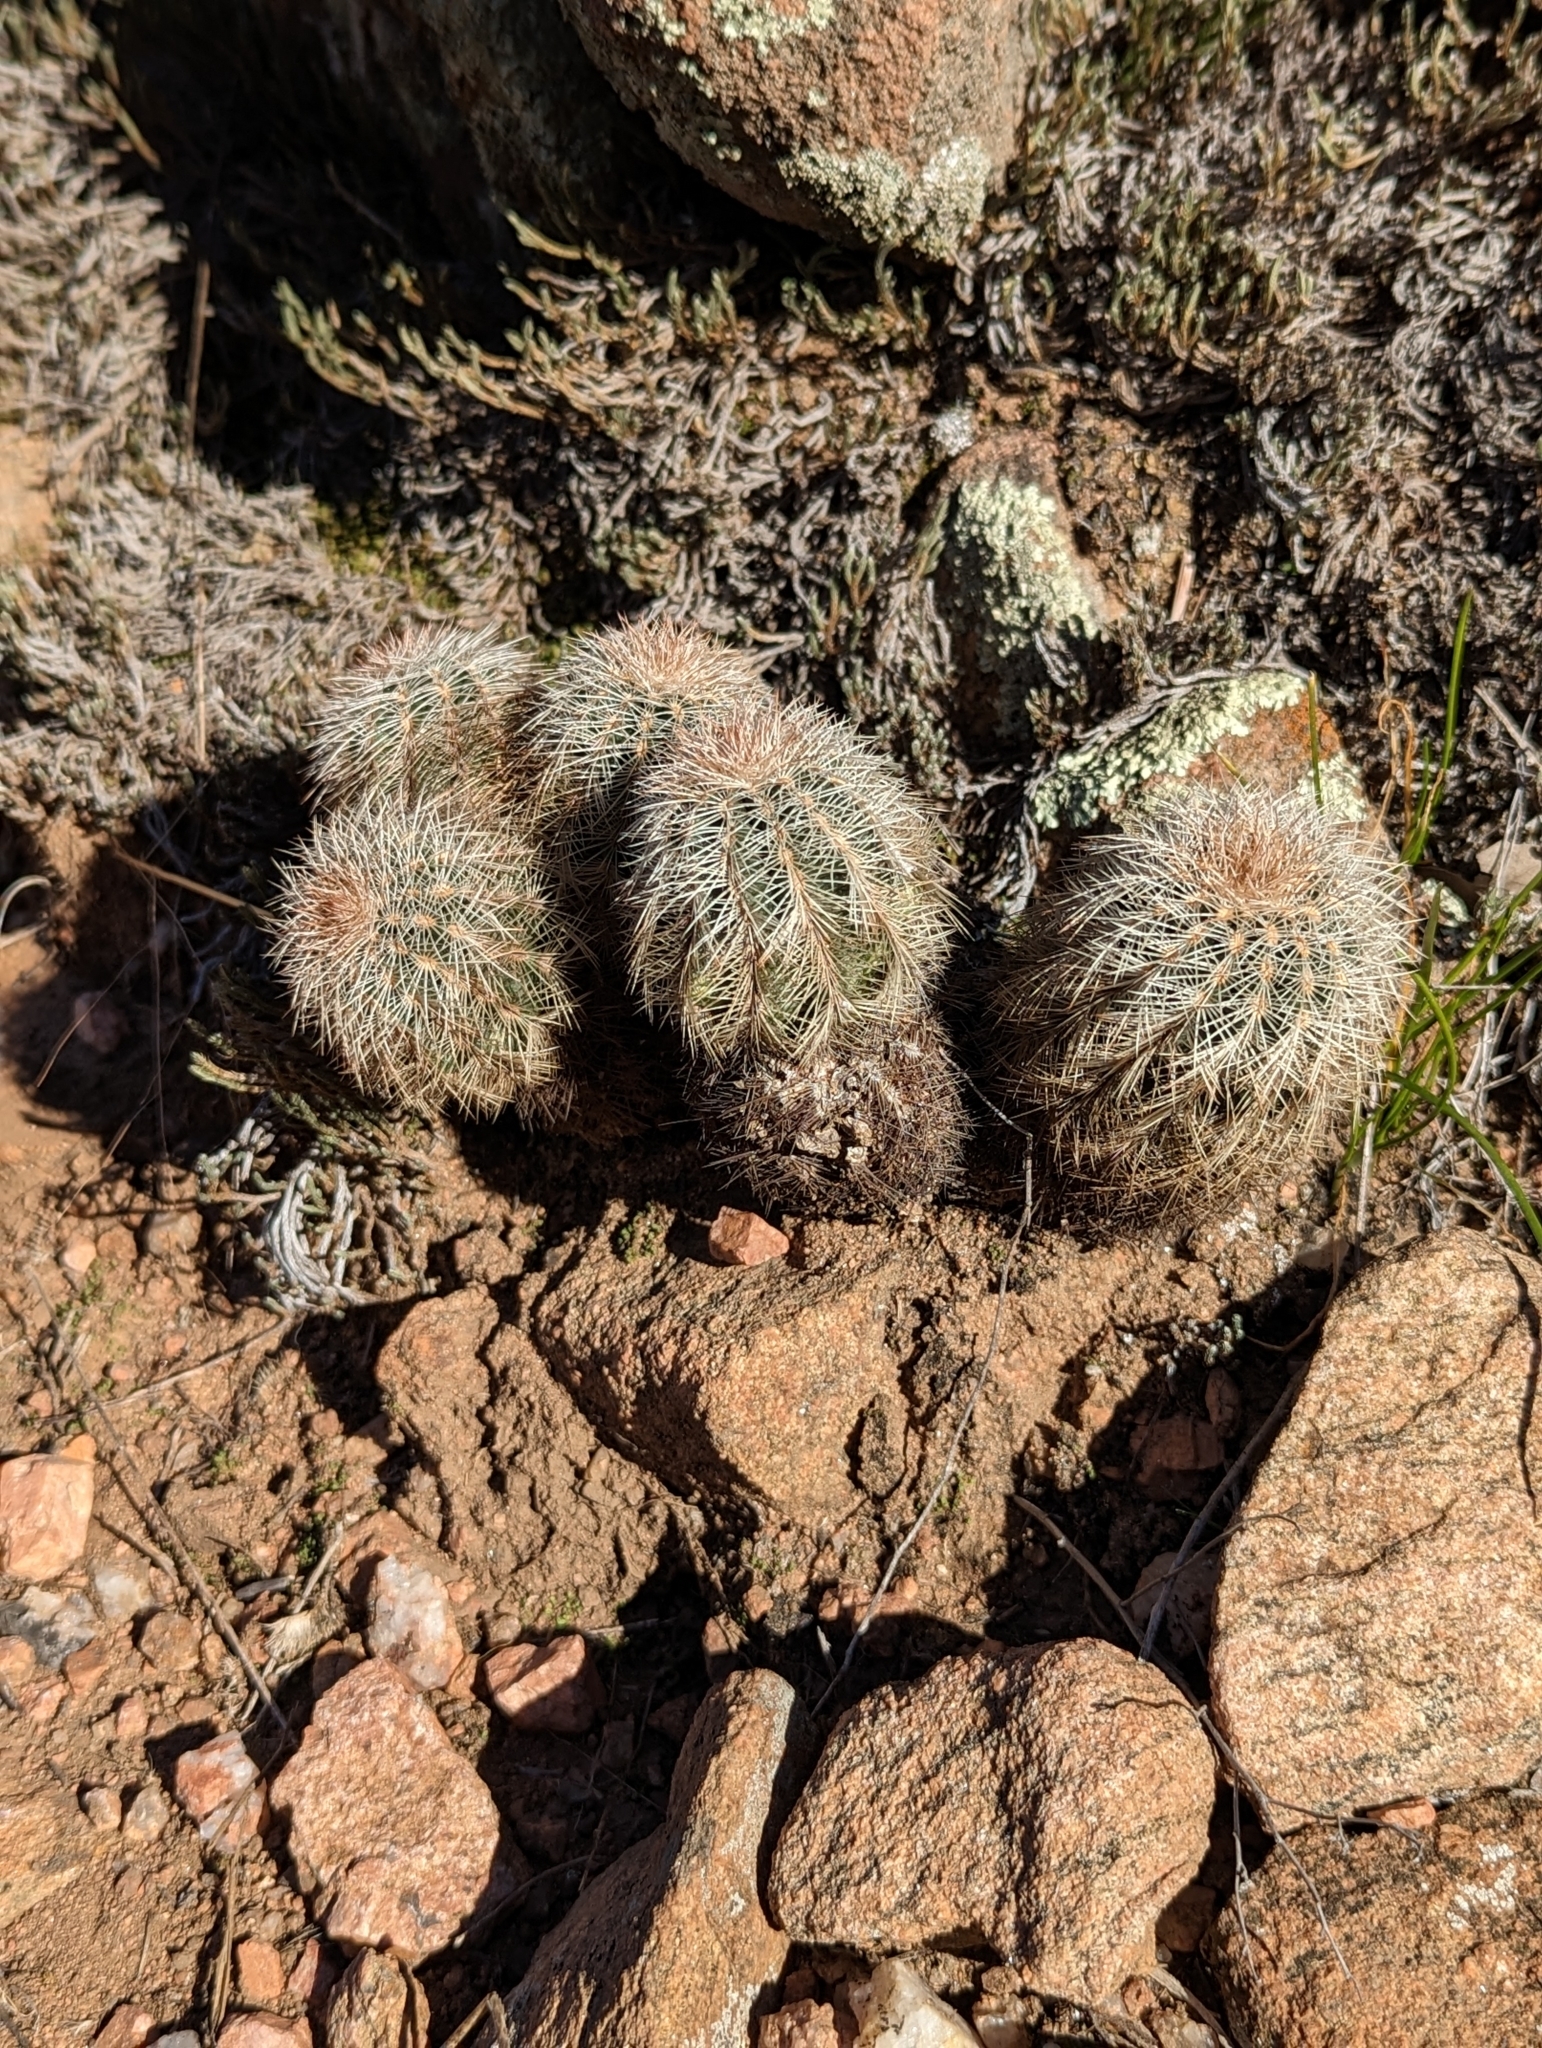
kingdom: Plantae
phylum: Tracheophyta
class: Magnoliopsida
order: Caryophyllales
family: Cactaceae
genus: Echinocereus
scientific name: Echinocereus reichenbachii
